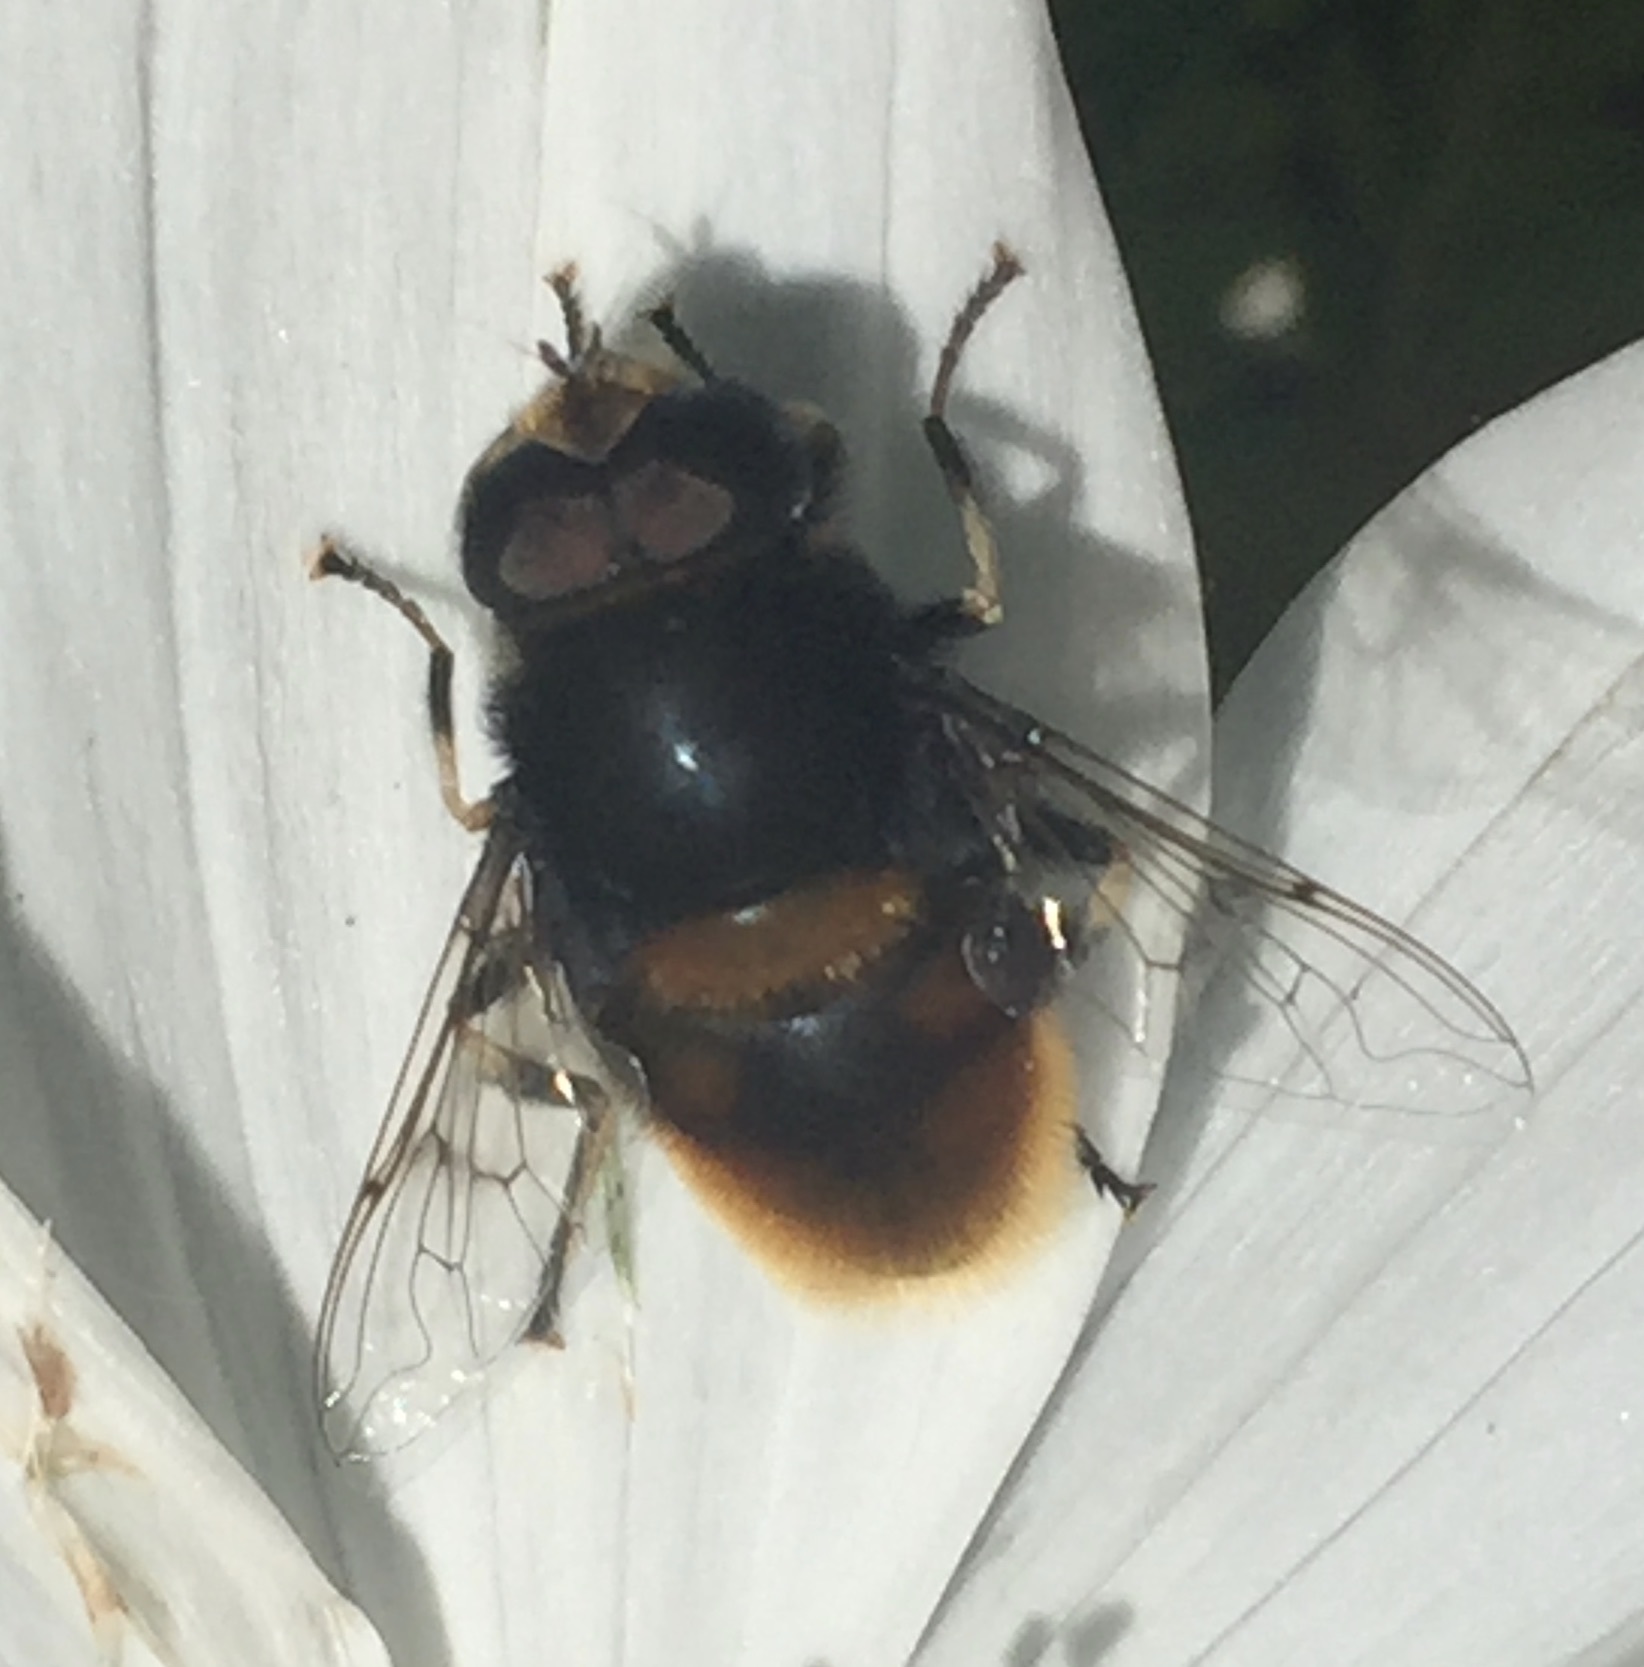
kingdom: Animalia
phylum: Arthropoda
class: Insecta
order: Diptera
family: Syrphidae
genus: Eristalis
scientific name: Eristalis intricaria
